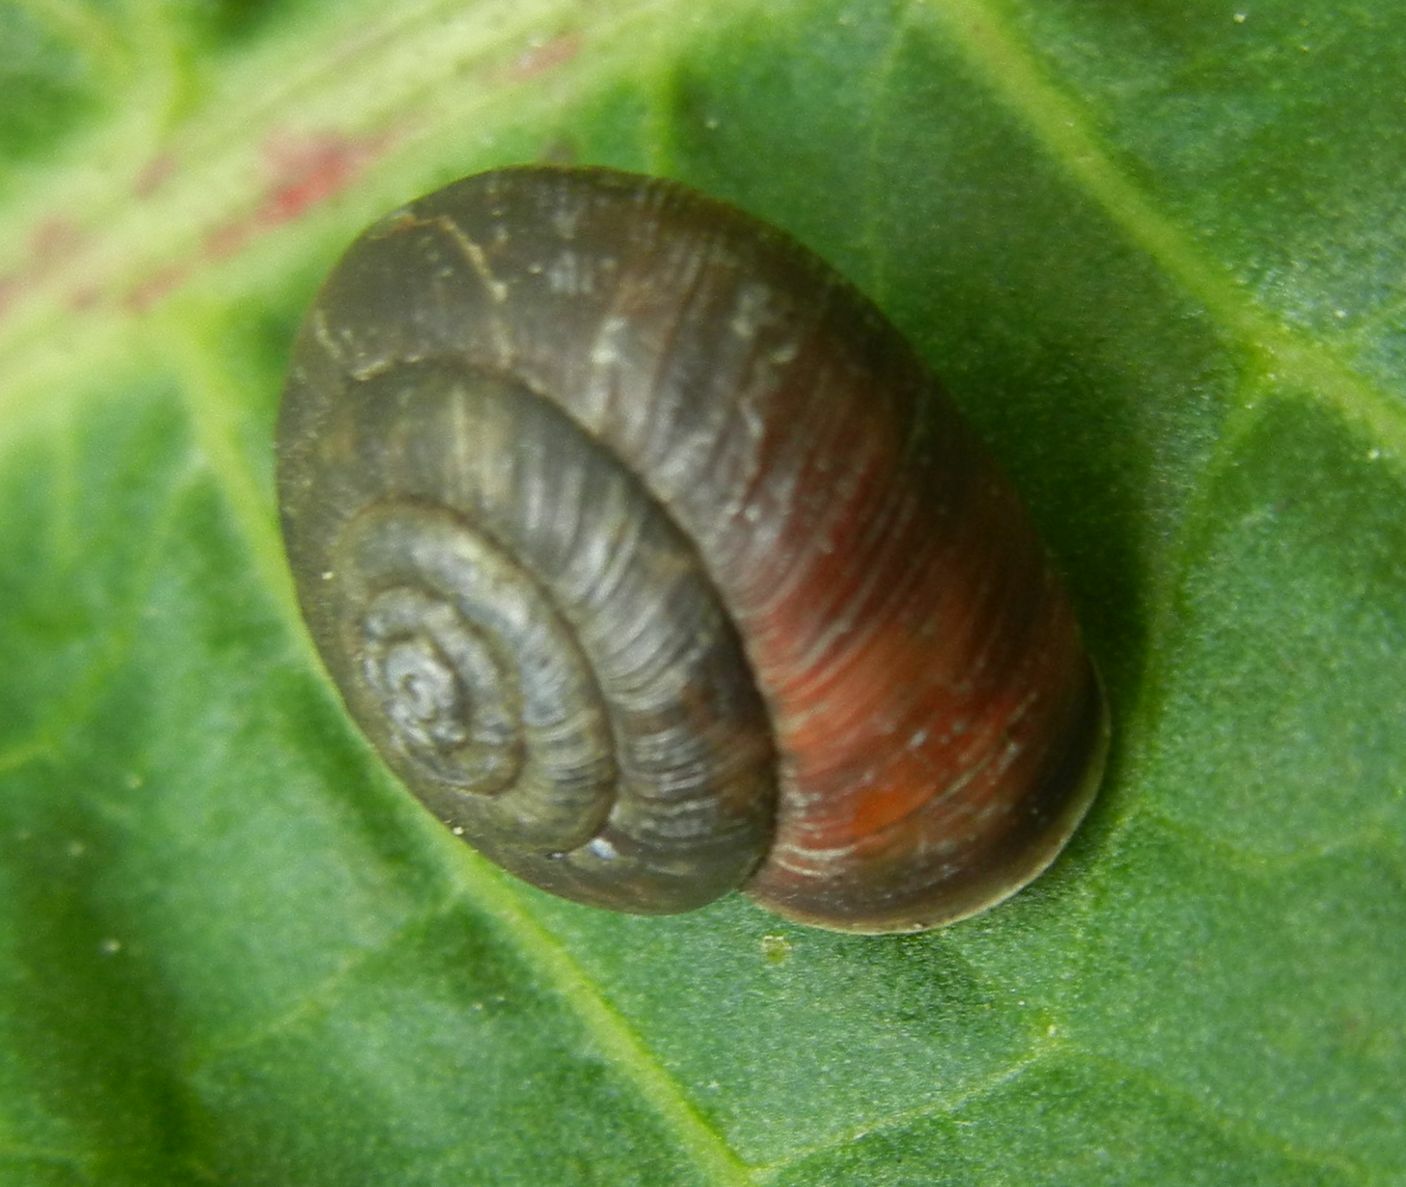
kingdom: Animalia
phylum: Mollusca
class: Gastropoda
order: Stylommatophora
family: Hygromiidae
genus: Trochulus
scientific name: Trochulus striolatus
